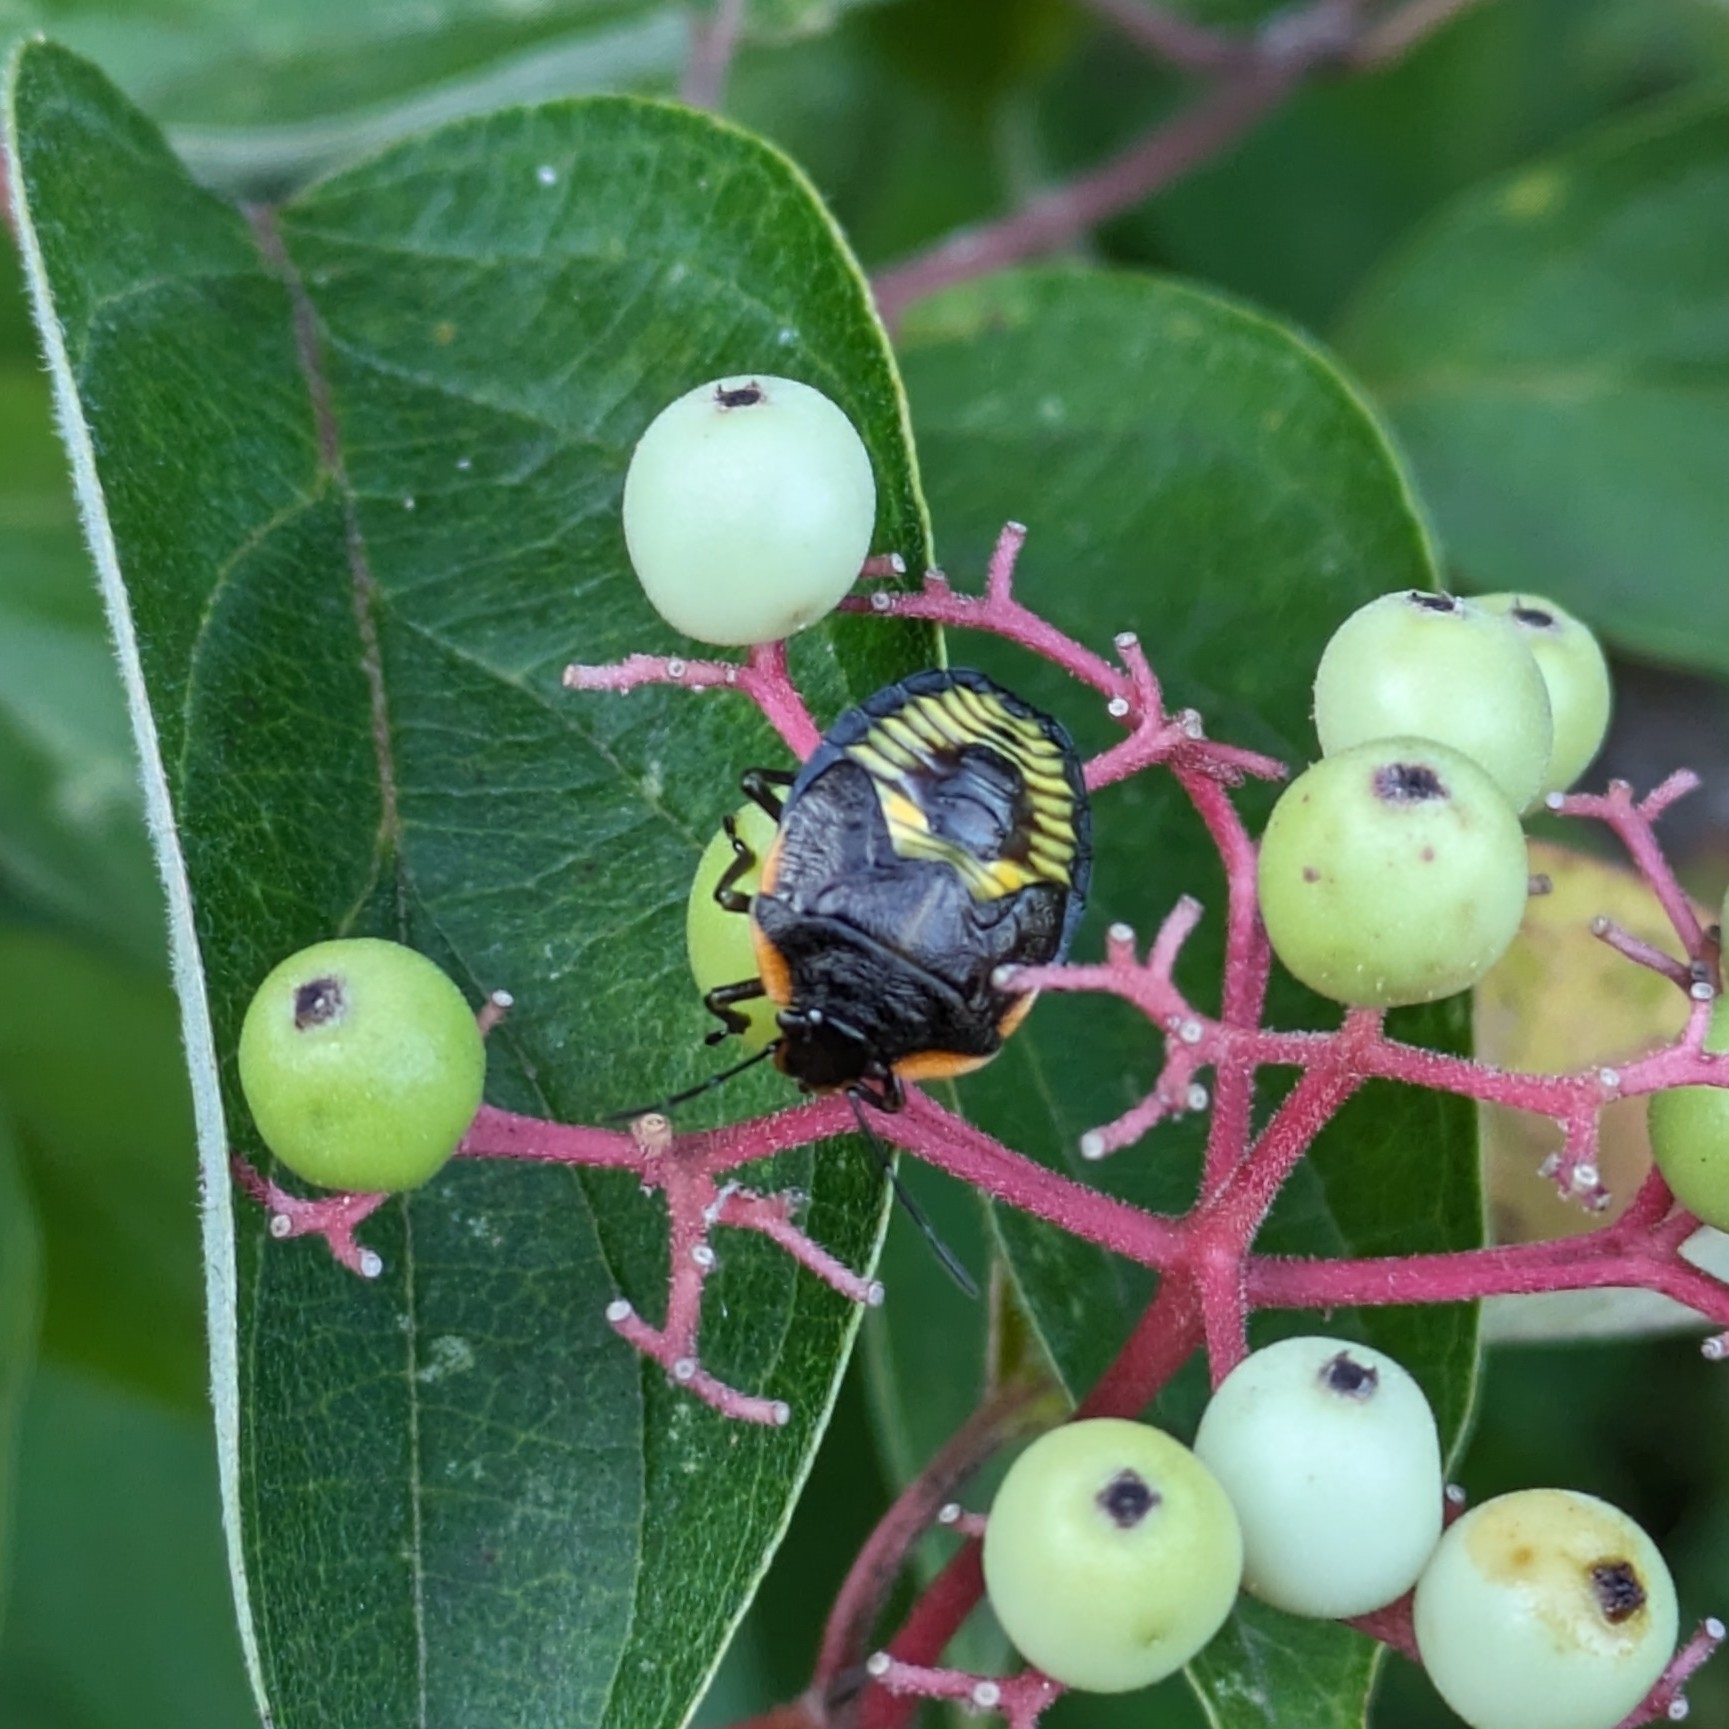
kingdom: Animalia
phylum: Arthropoda
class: Insecta
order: Hemiptera
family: Pentatomidae
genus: Chinavia
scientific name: Chinavia hilaris
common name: Green stink bug
